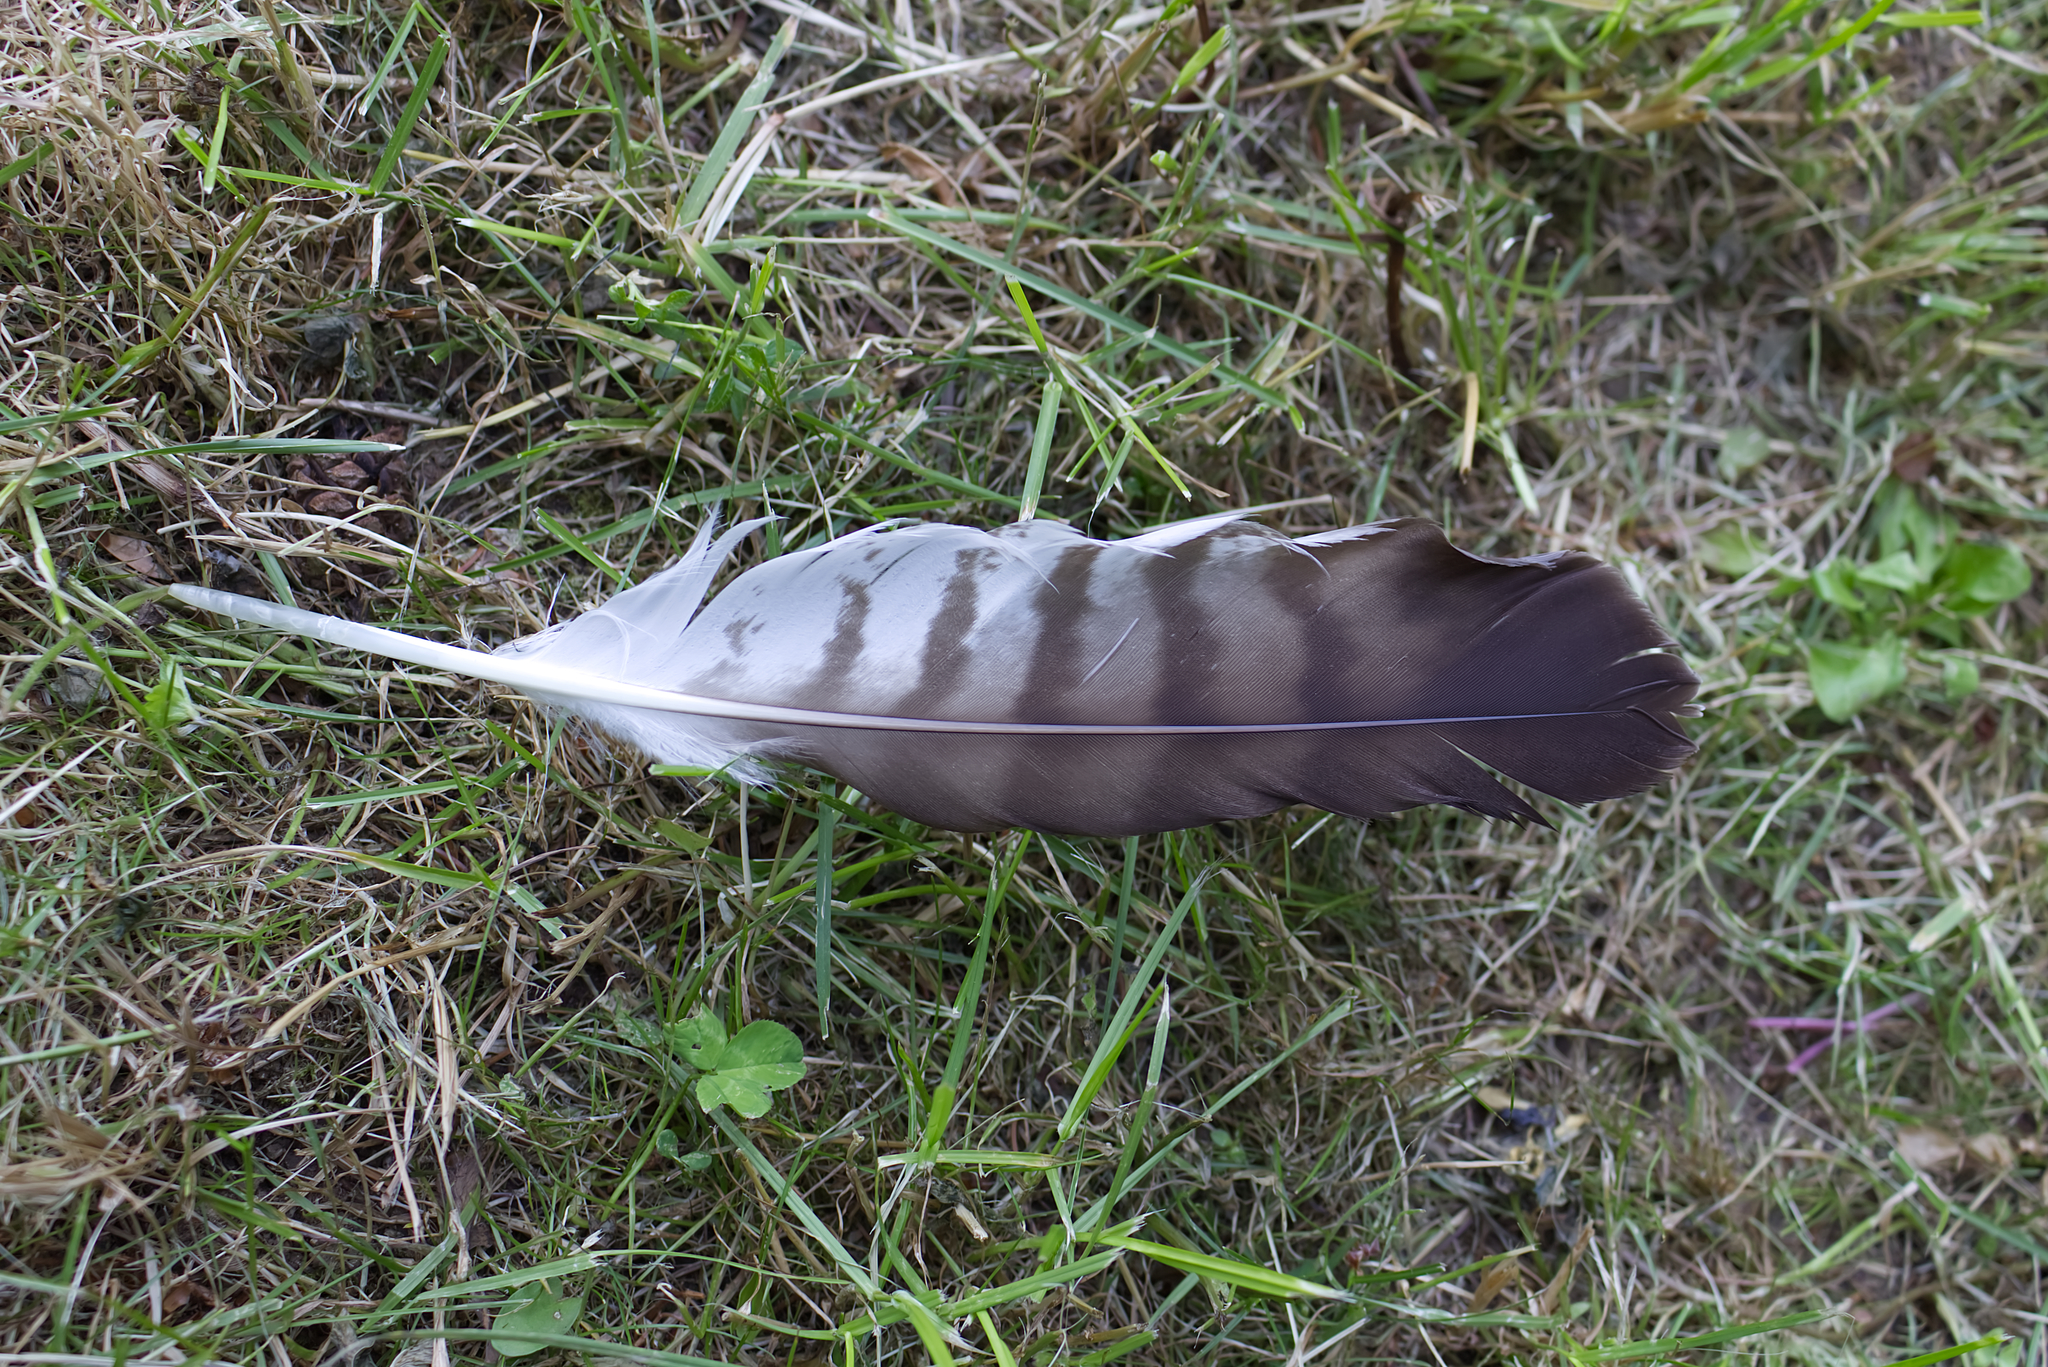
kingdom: Animalia
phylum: Chordata
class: Aves
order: Accipitriformes
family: Accipitridae
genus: Buteo
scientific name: Buteo buteo
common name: Common buzzard
